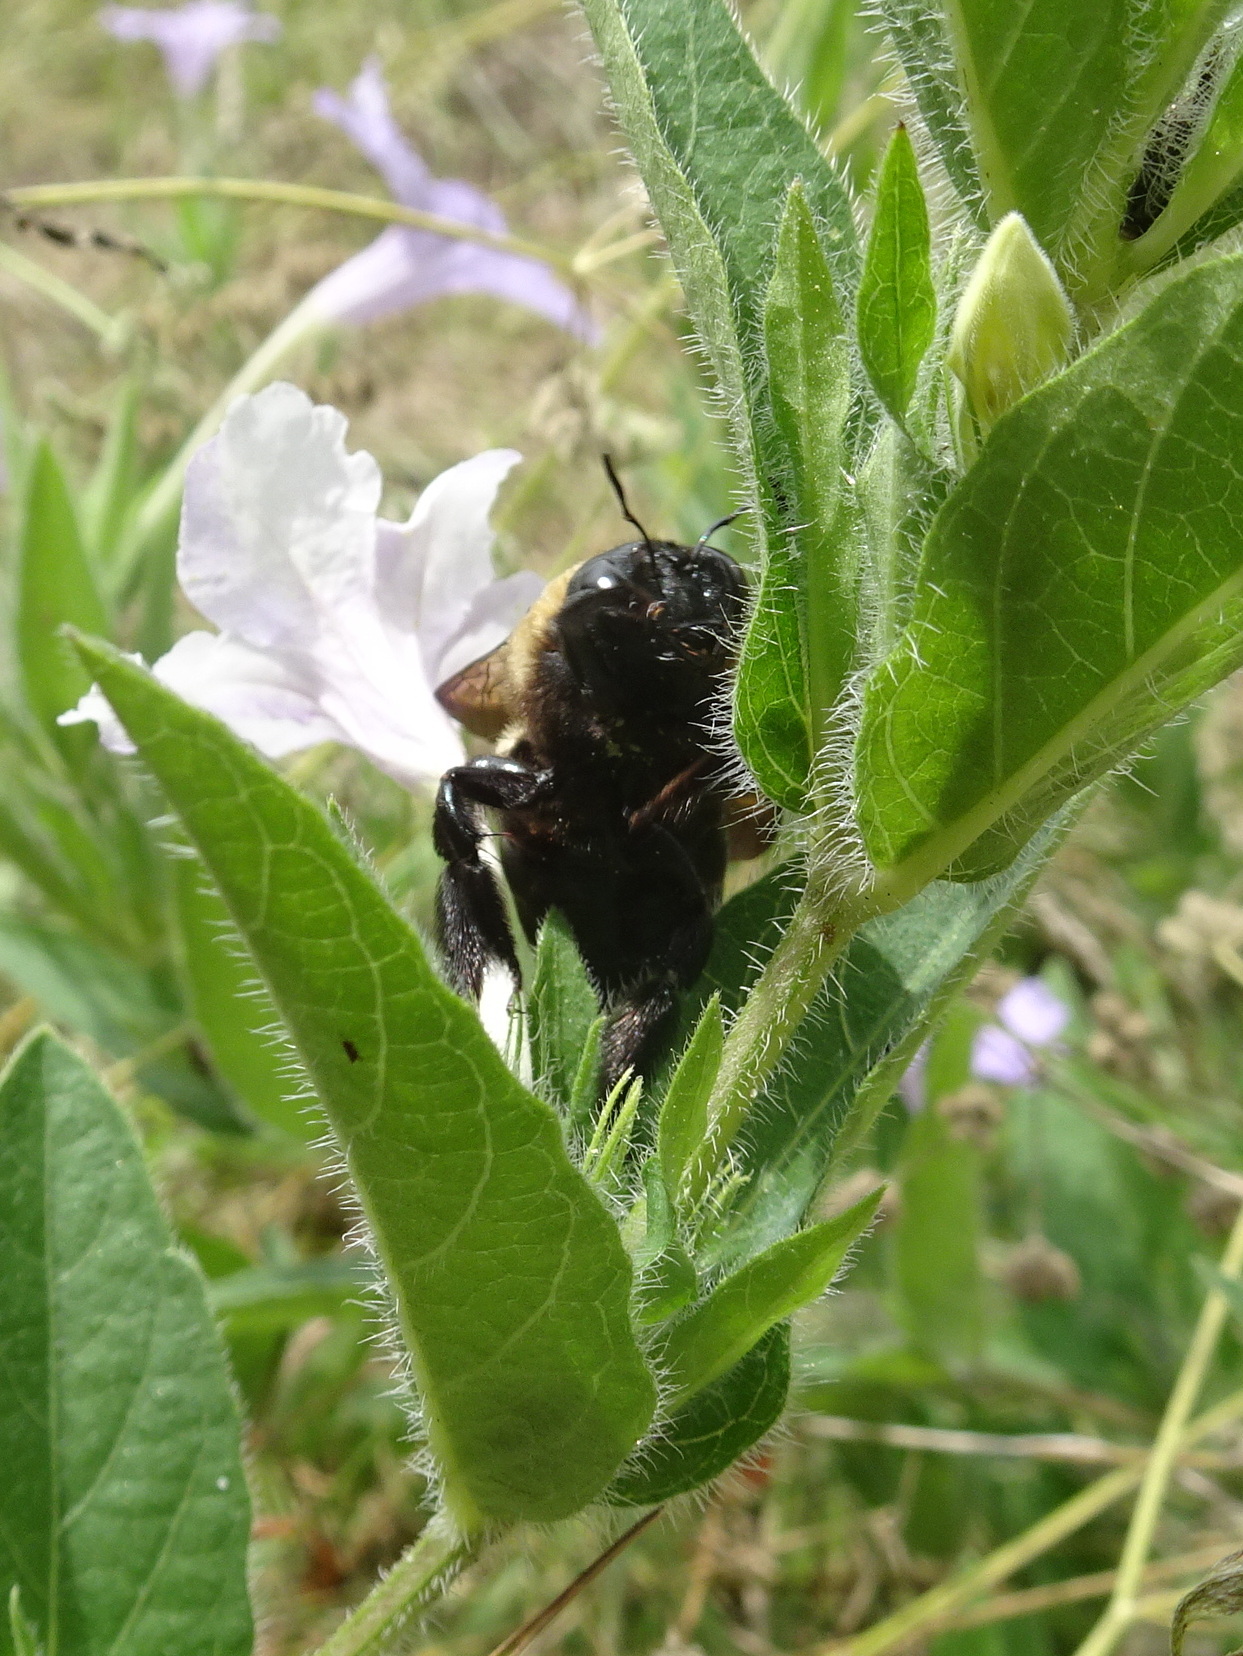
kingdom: Animalia
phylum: Arthropoda
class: Insecta
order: Hymenoptera
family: Apidae
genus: Xylocopa
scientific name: Xylocopa virginica
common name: Carpenter bee
